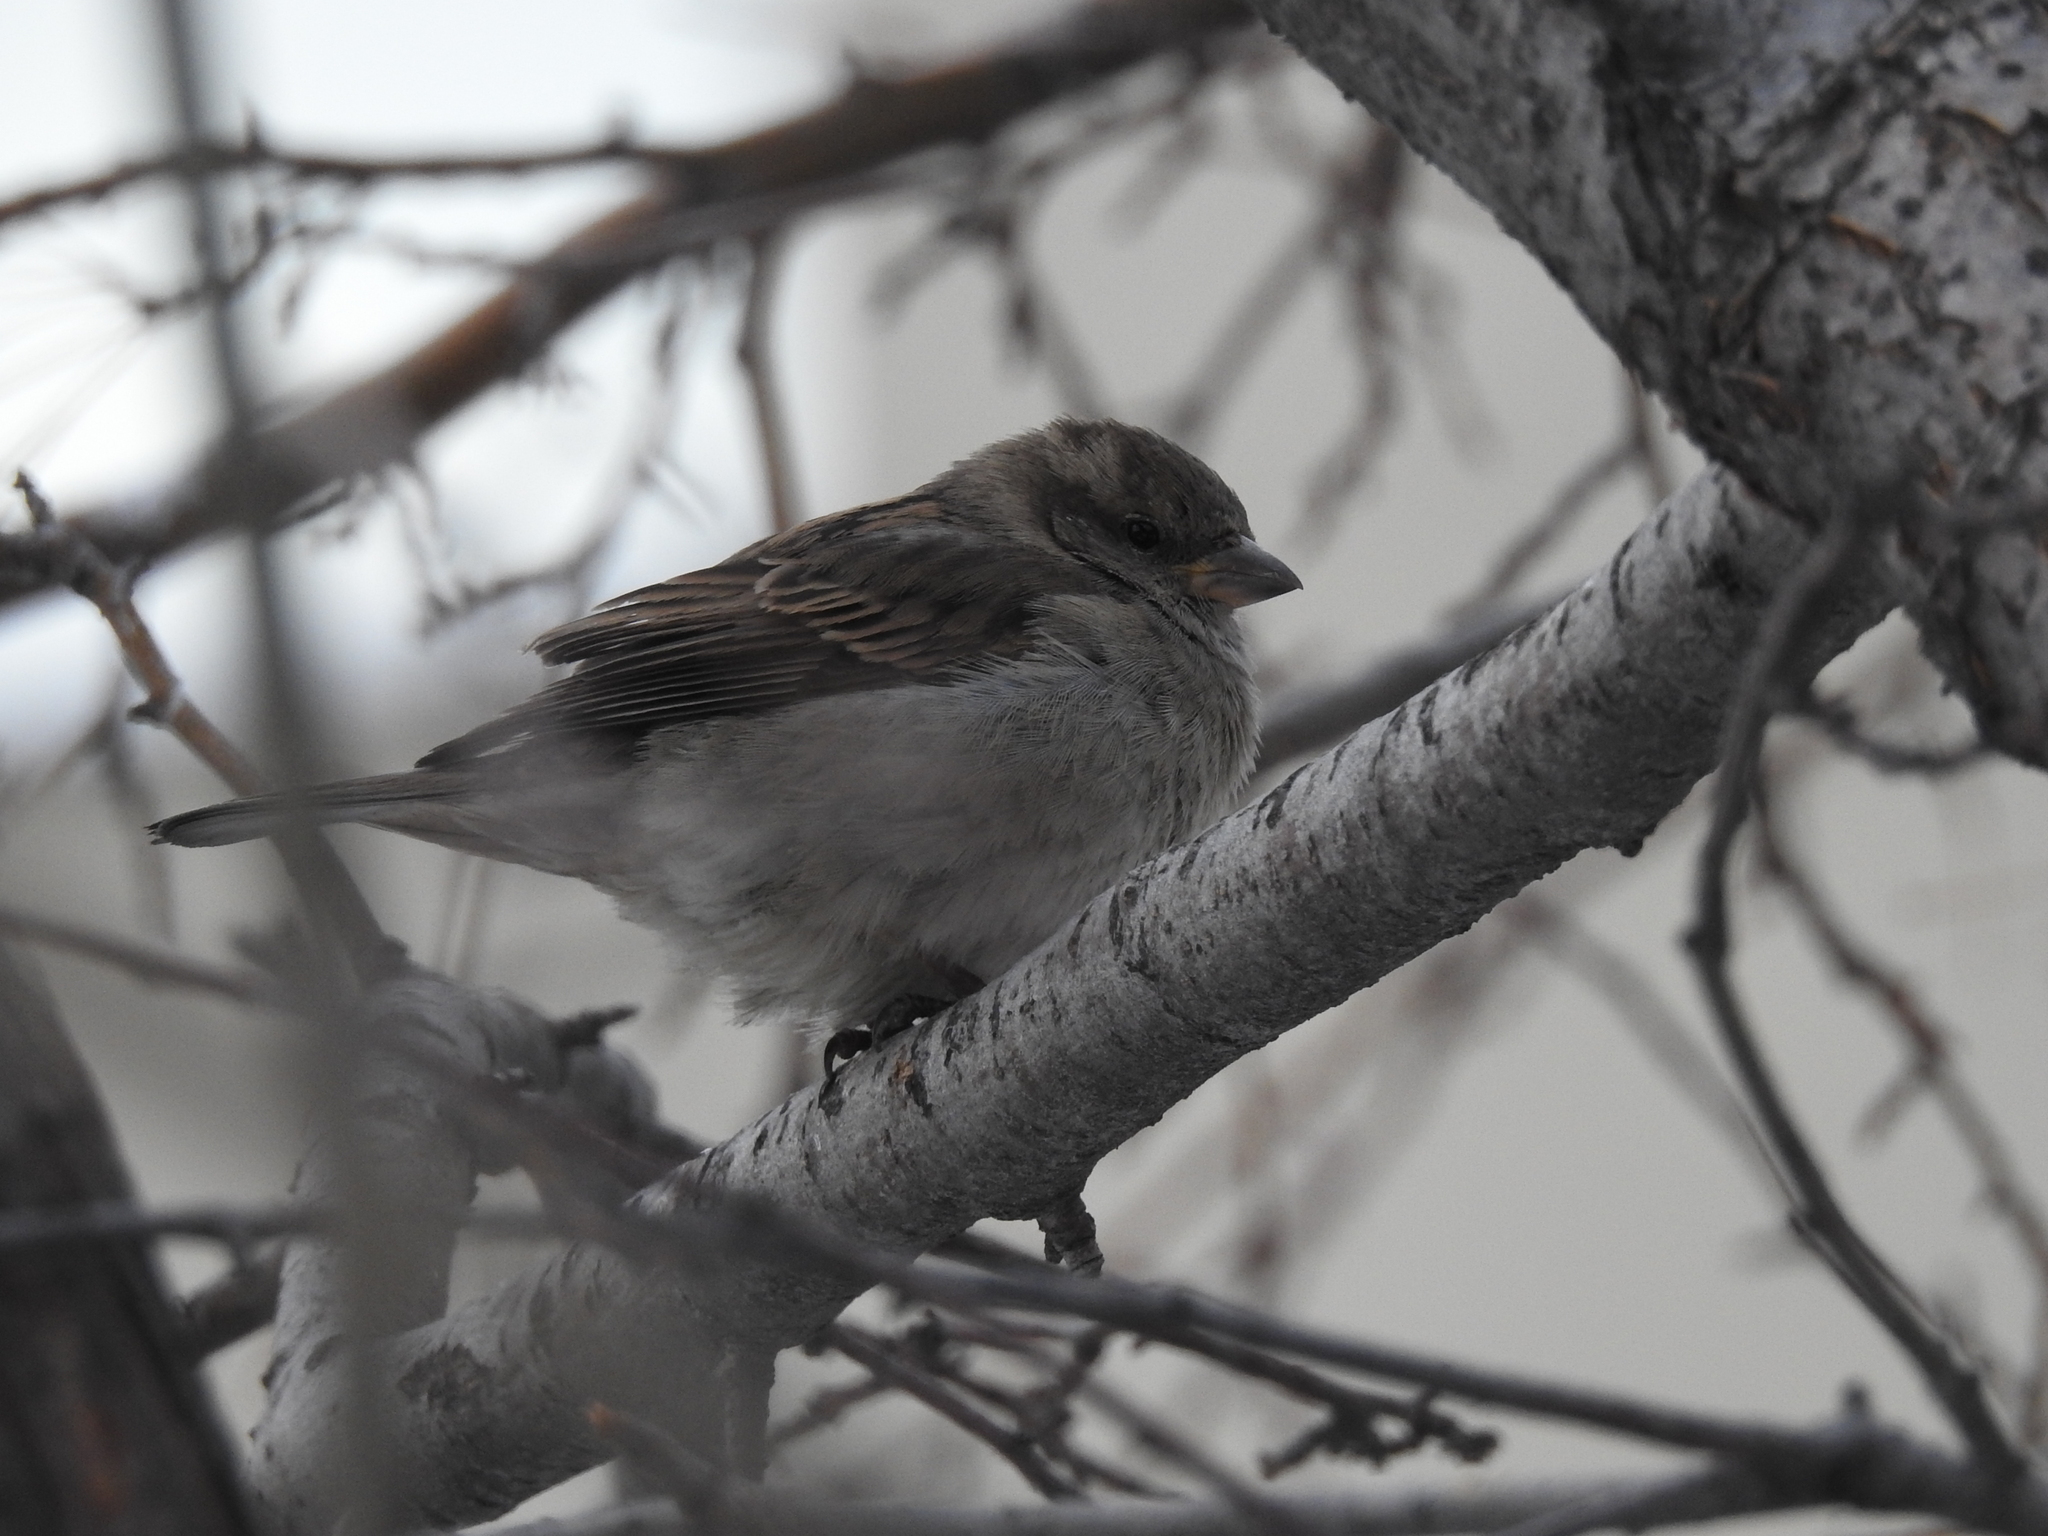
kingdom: Animalia
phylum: Chordata
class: Aves
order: Passeriformes
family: Passeridae
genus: Passer
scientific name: Passer domesticus
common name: House sparrow
